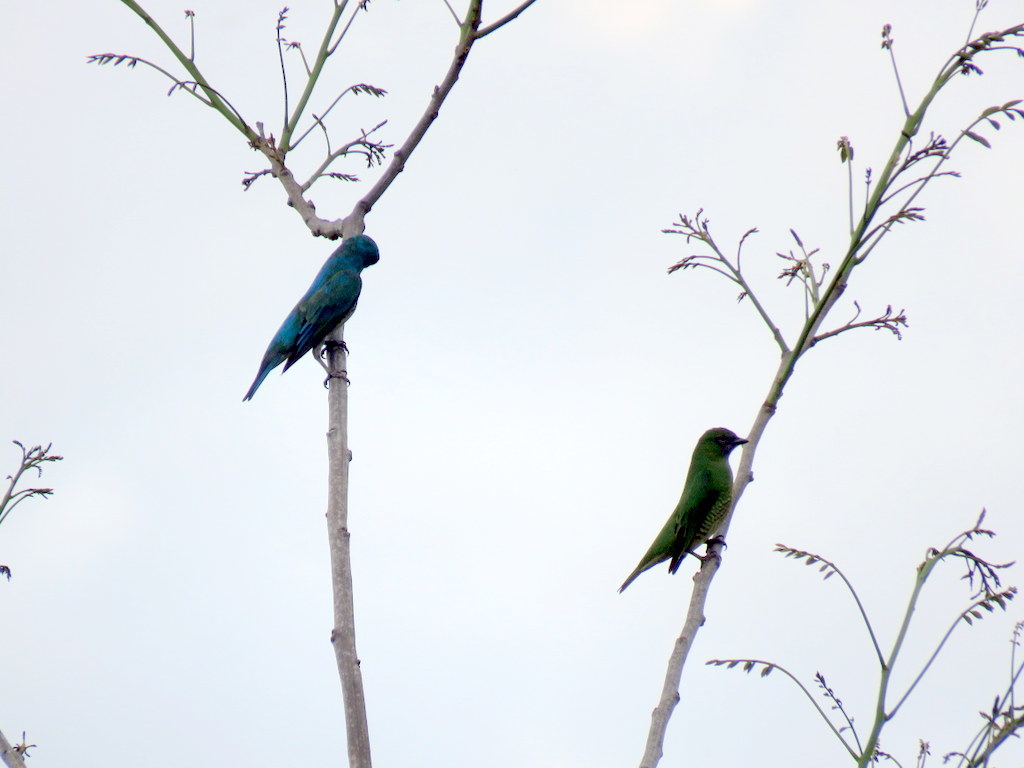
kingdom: Animalia
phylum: Chordata
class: Aves
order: Passeriformes
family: Thraupidae
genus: Tersina
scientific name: Tersina viridis
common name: Swallow tanager
